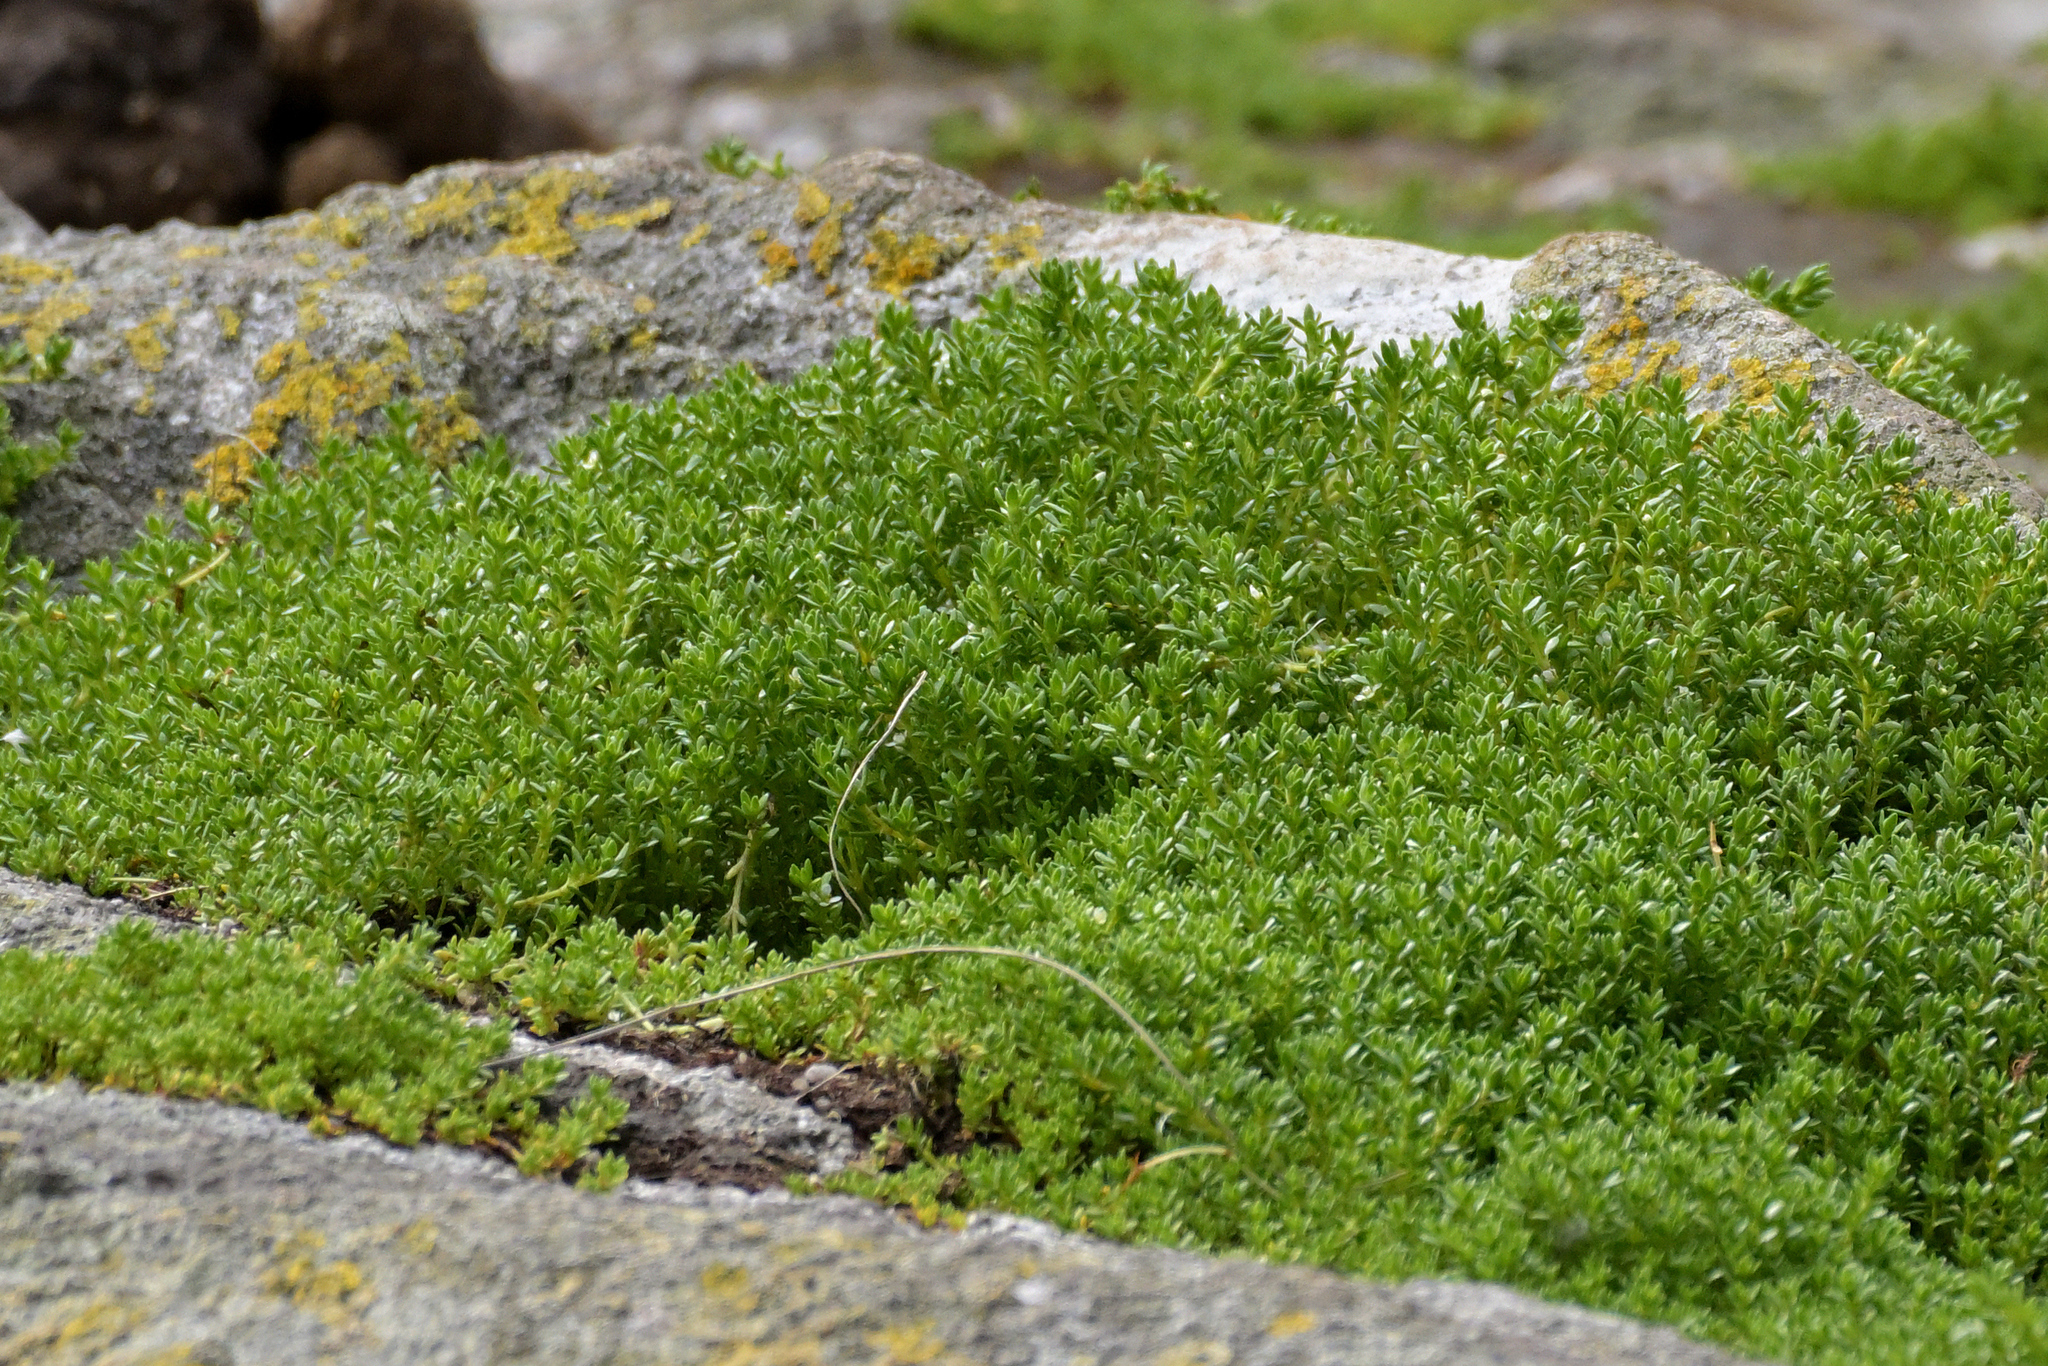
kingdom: Plantae
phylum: Tracheophyta
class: Magnoliopsida
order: Saxifragales
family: Crassulaceae
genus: Crassula
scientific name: Crassula moschata
